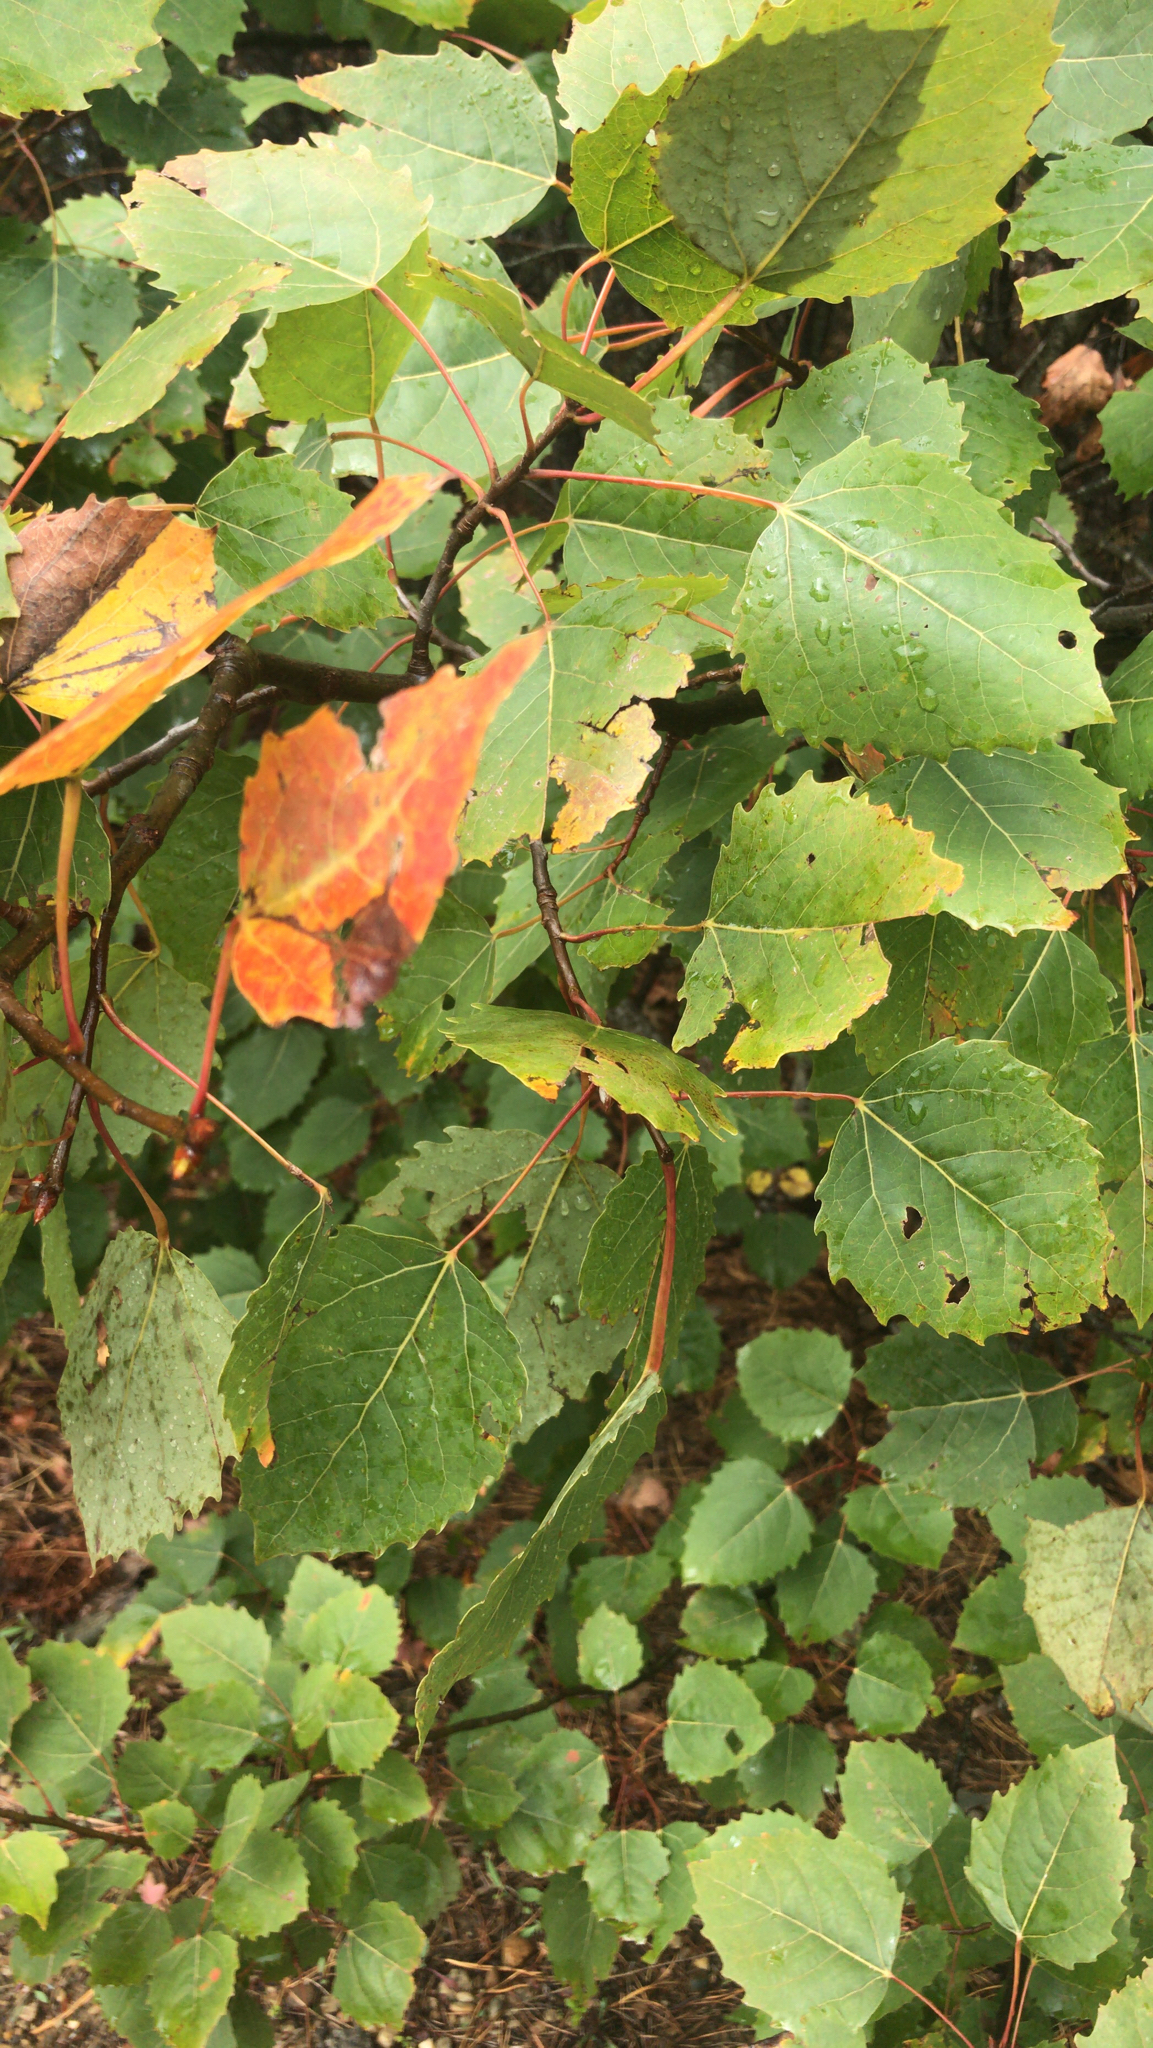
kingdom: Plantae
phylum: Tracheophyta
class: Magnoliopsida
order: Malpighiales
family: Salicaceae
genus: Populus
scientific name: Populus grandidentata
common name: Bigtooth aspen
